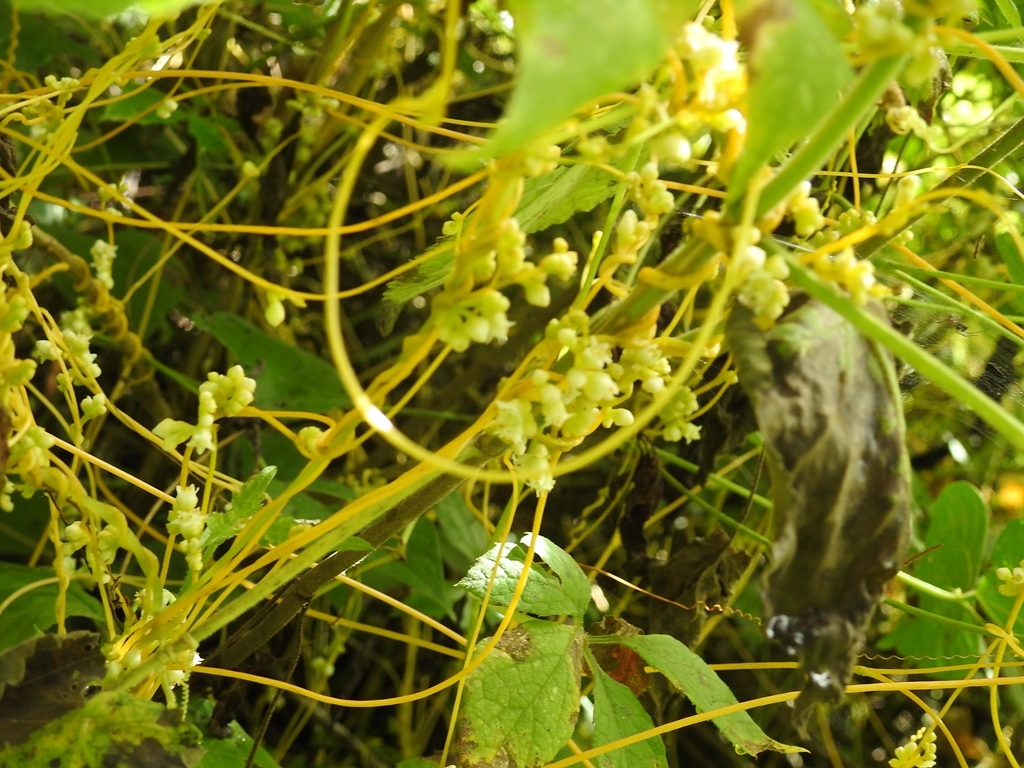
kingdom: Plantae
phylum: Tracheophyta
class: Magnoliopsida
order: Solanales
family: Convolvulaceae
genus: Cuscuta
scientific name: Cuscuta tinctoria
